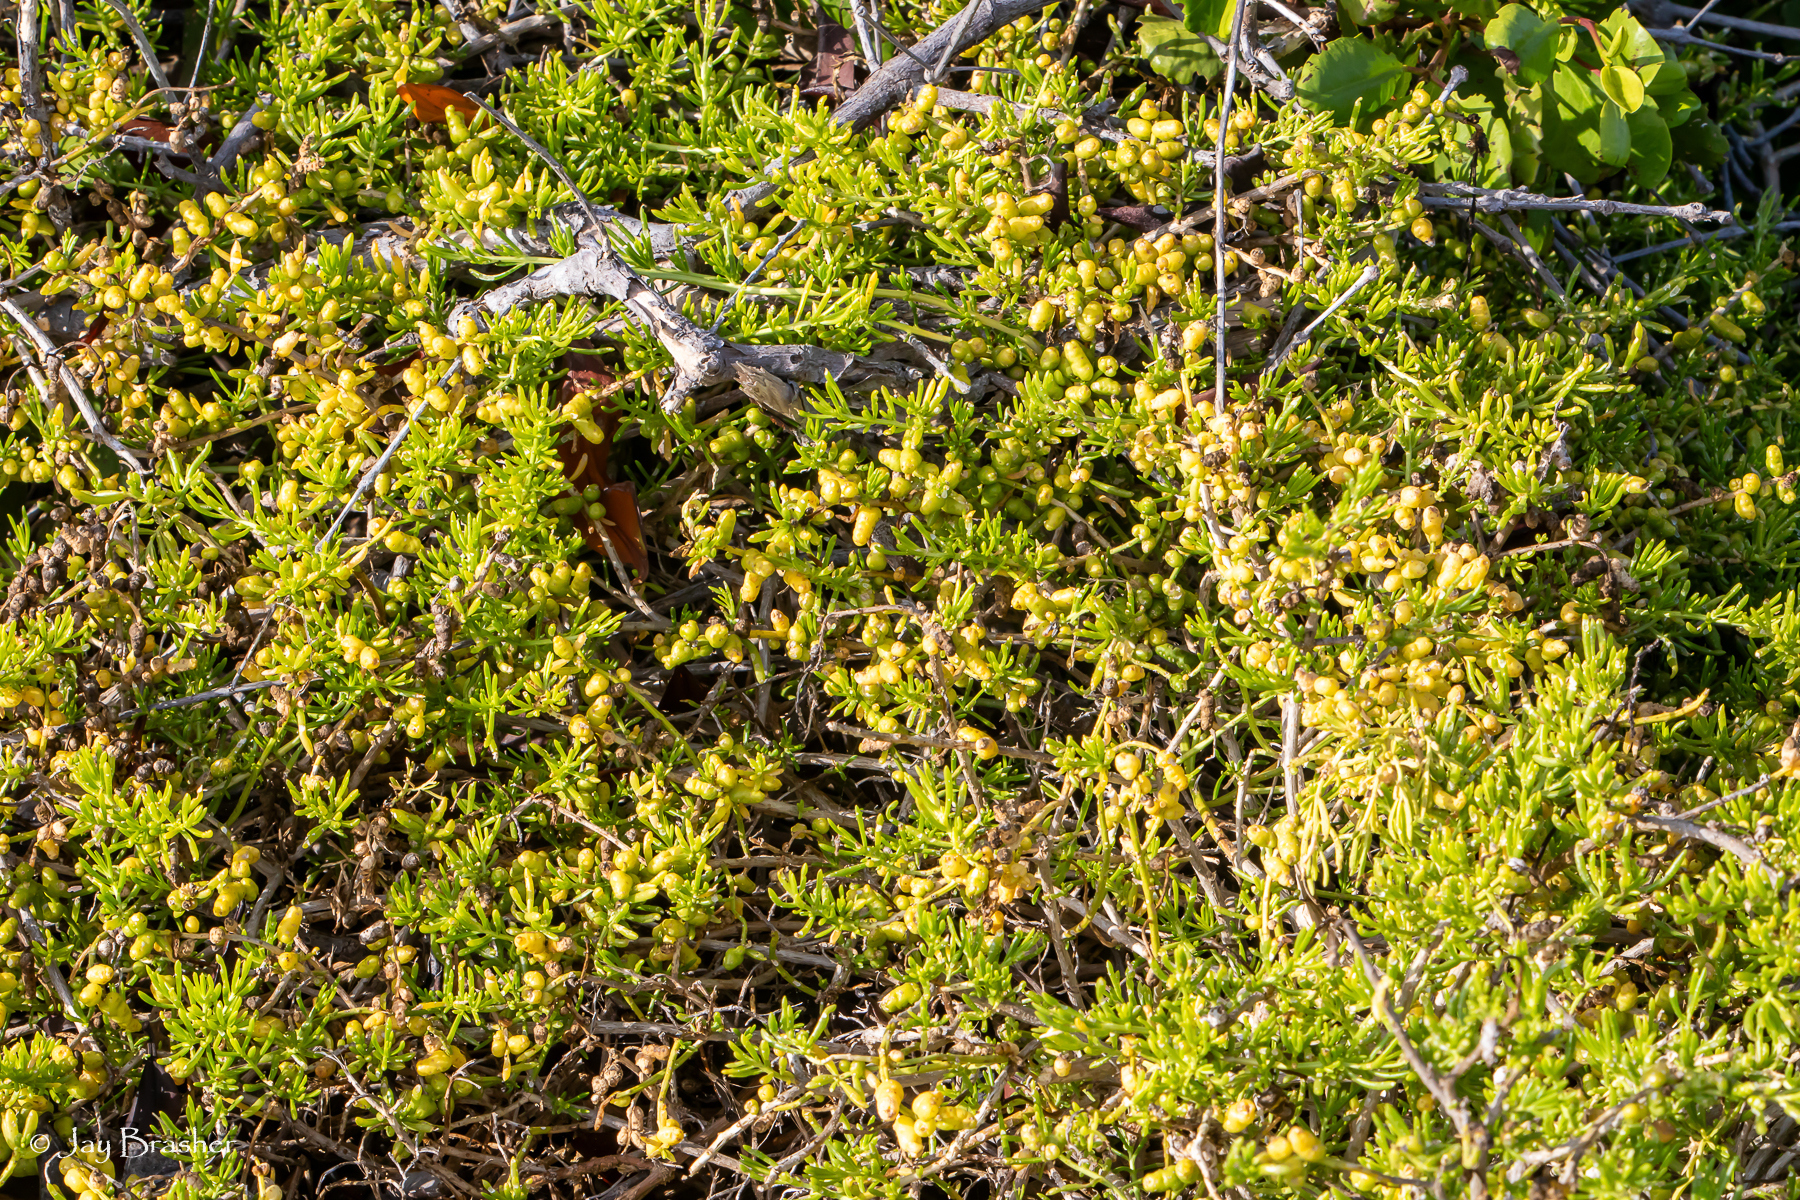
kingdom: Plantae
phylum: Tracheophyta
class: Magnoliopsida
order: Brassicales
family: Bataceae
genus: Batis
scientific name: Batis maritima
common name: Turtleweed
